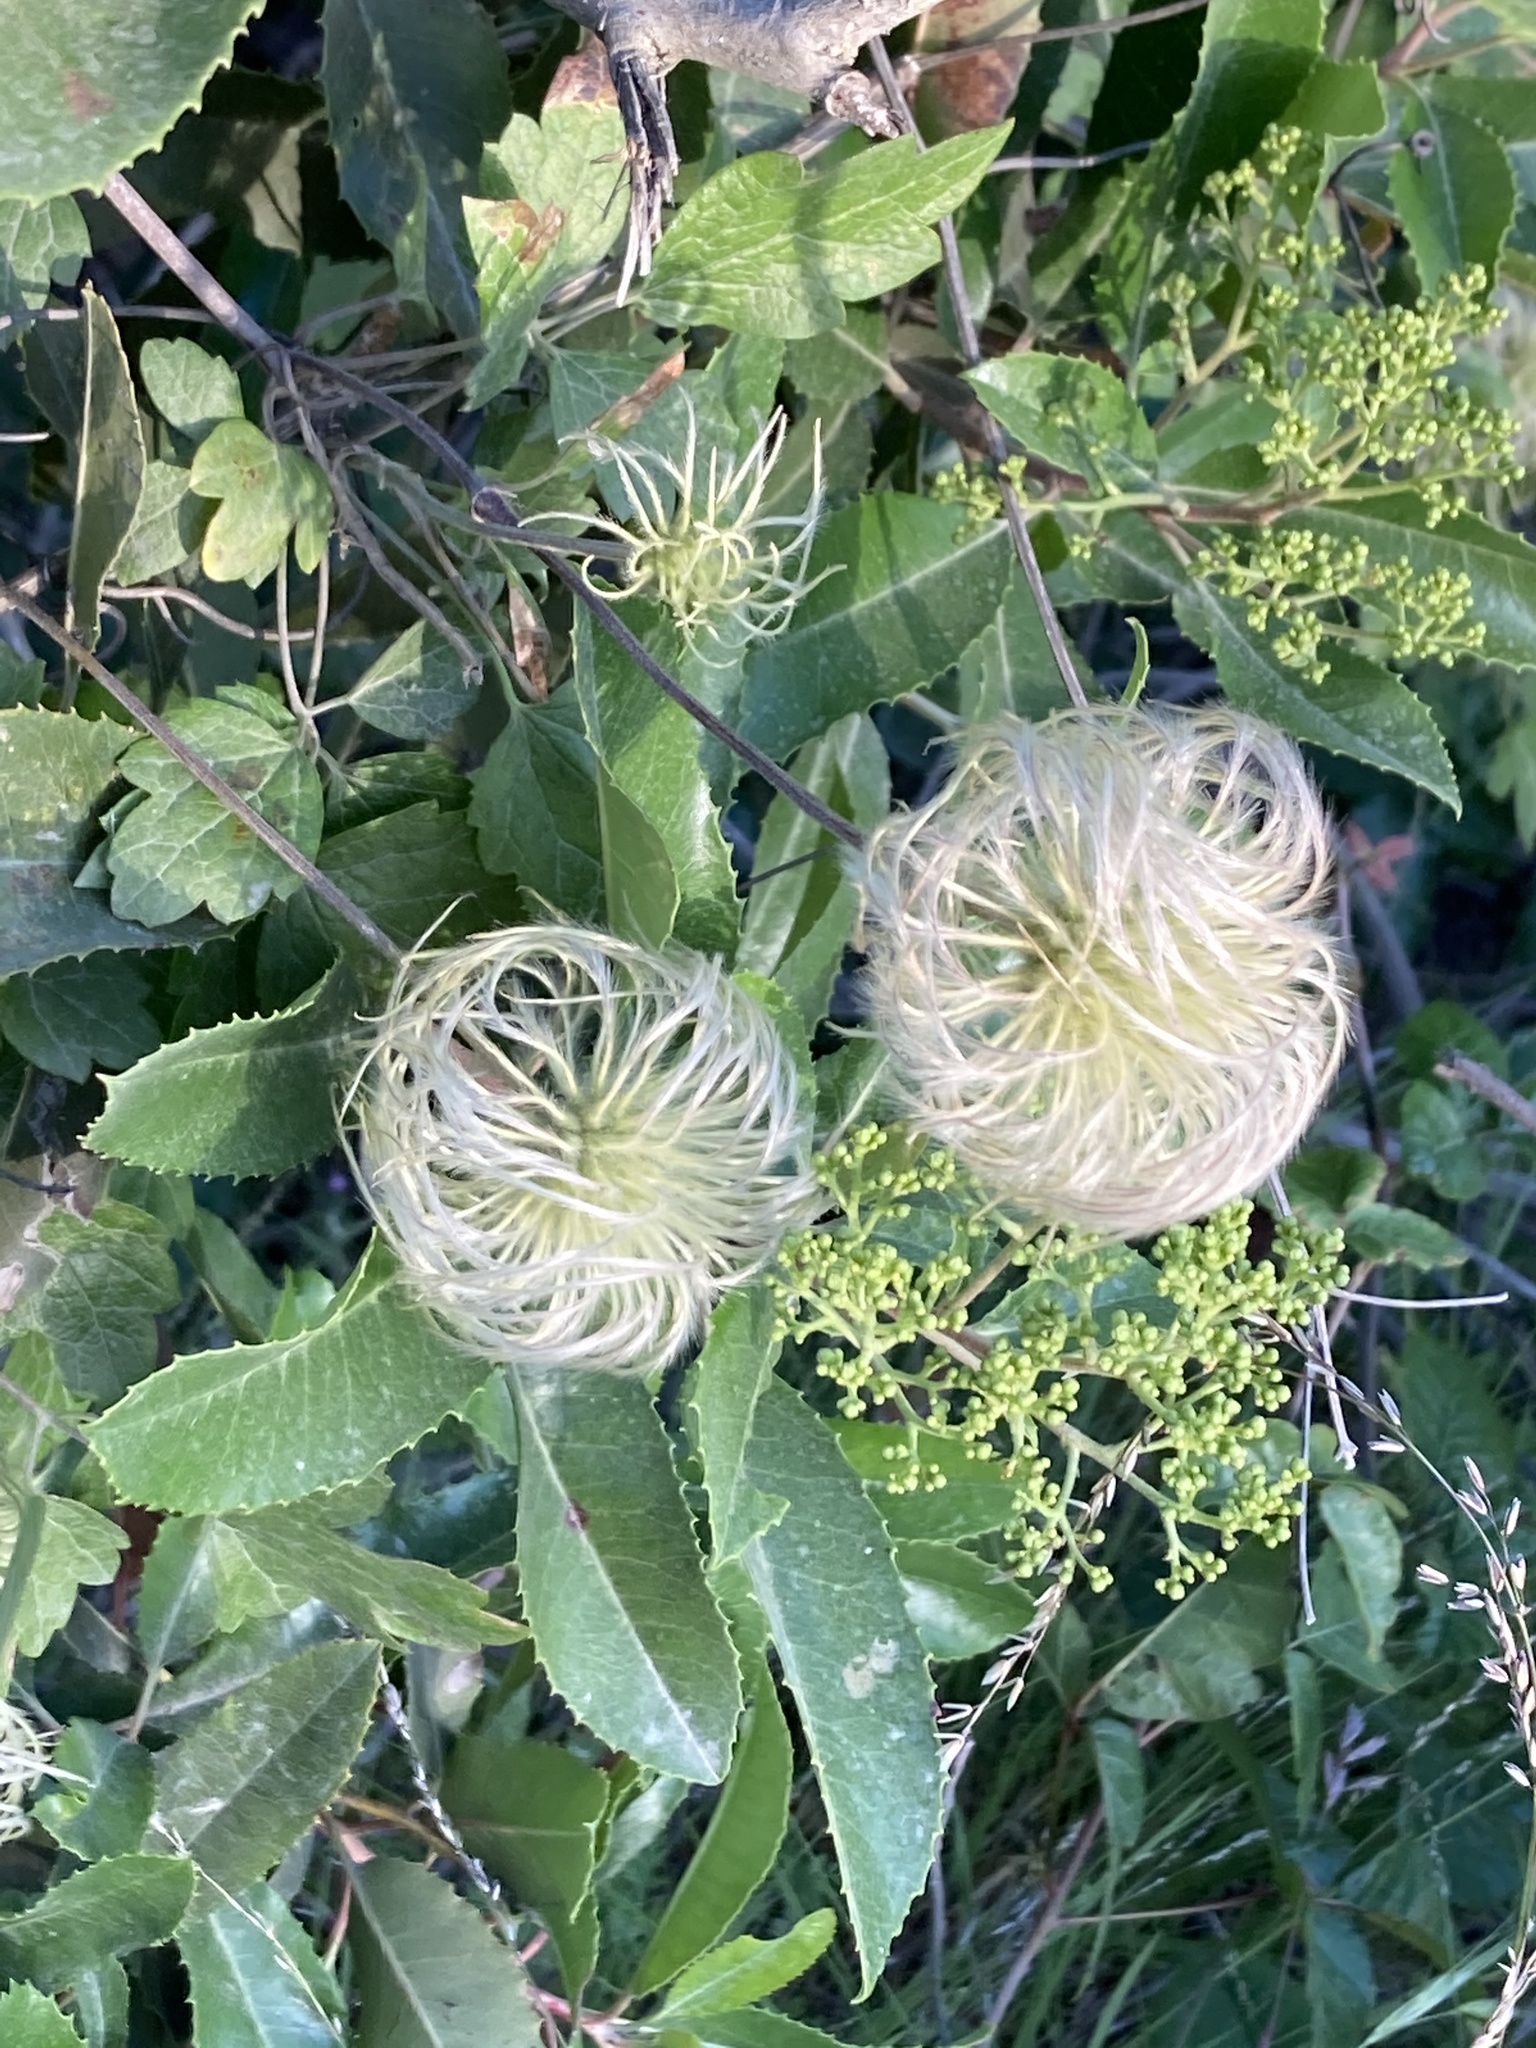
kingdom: Plantae
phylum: Tracheophyta
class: Magnoliopsida
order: Ranunculales
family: Ranunculaceae
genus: Clematis
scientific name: Clematis lasiantha
